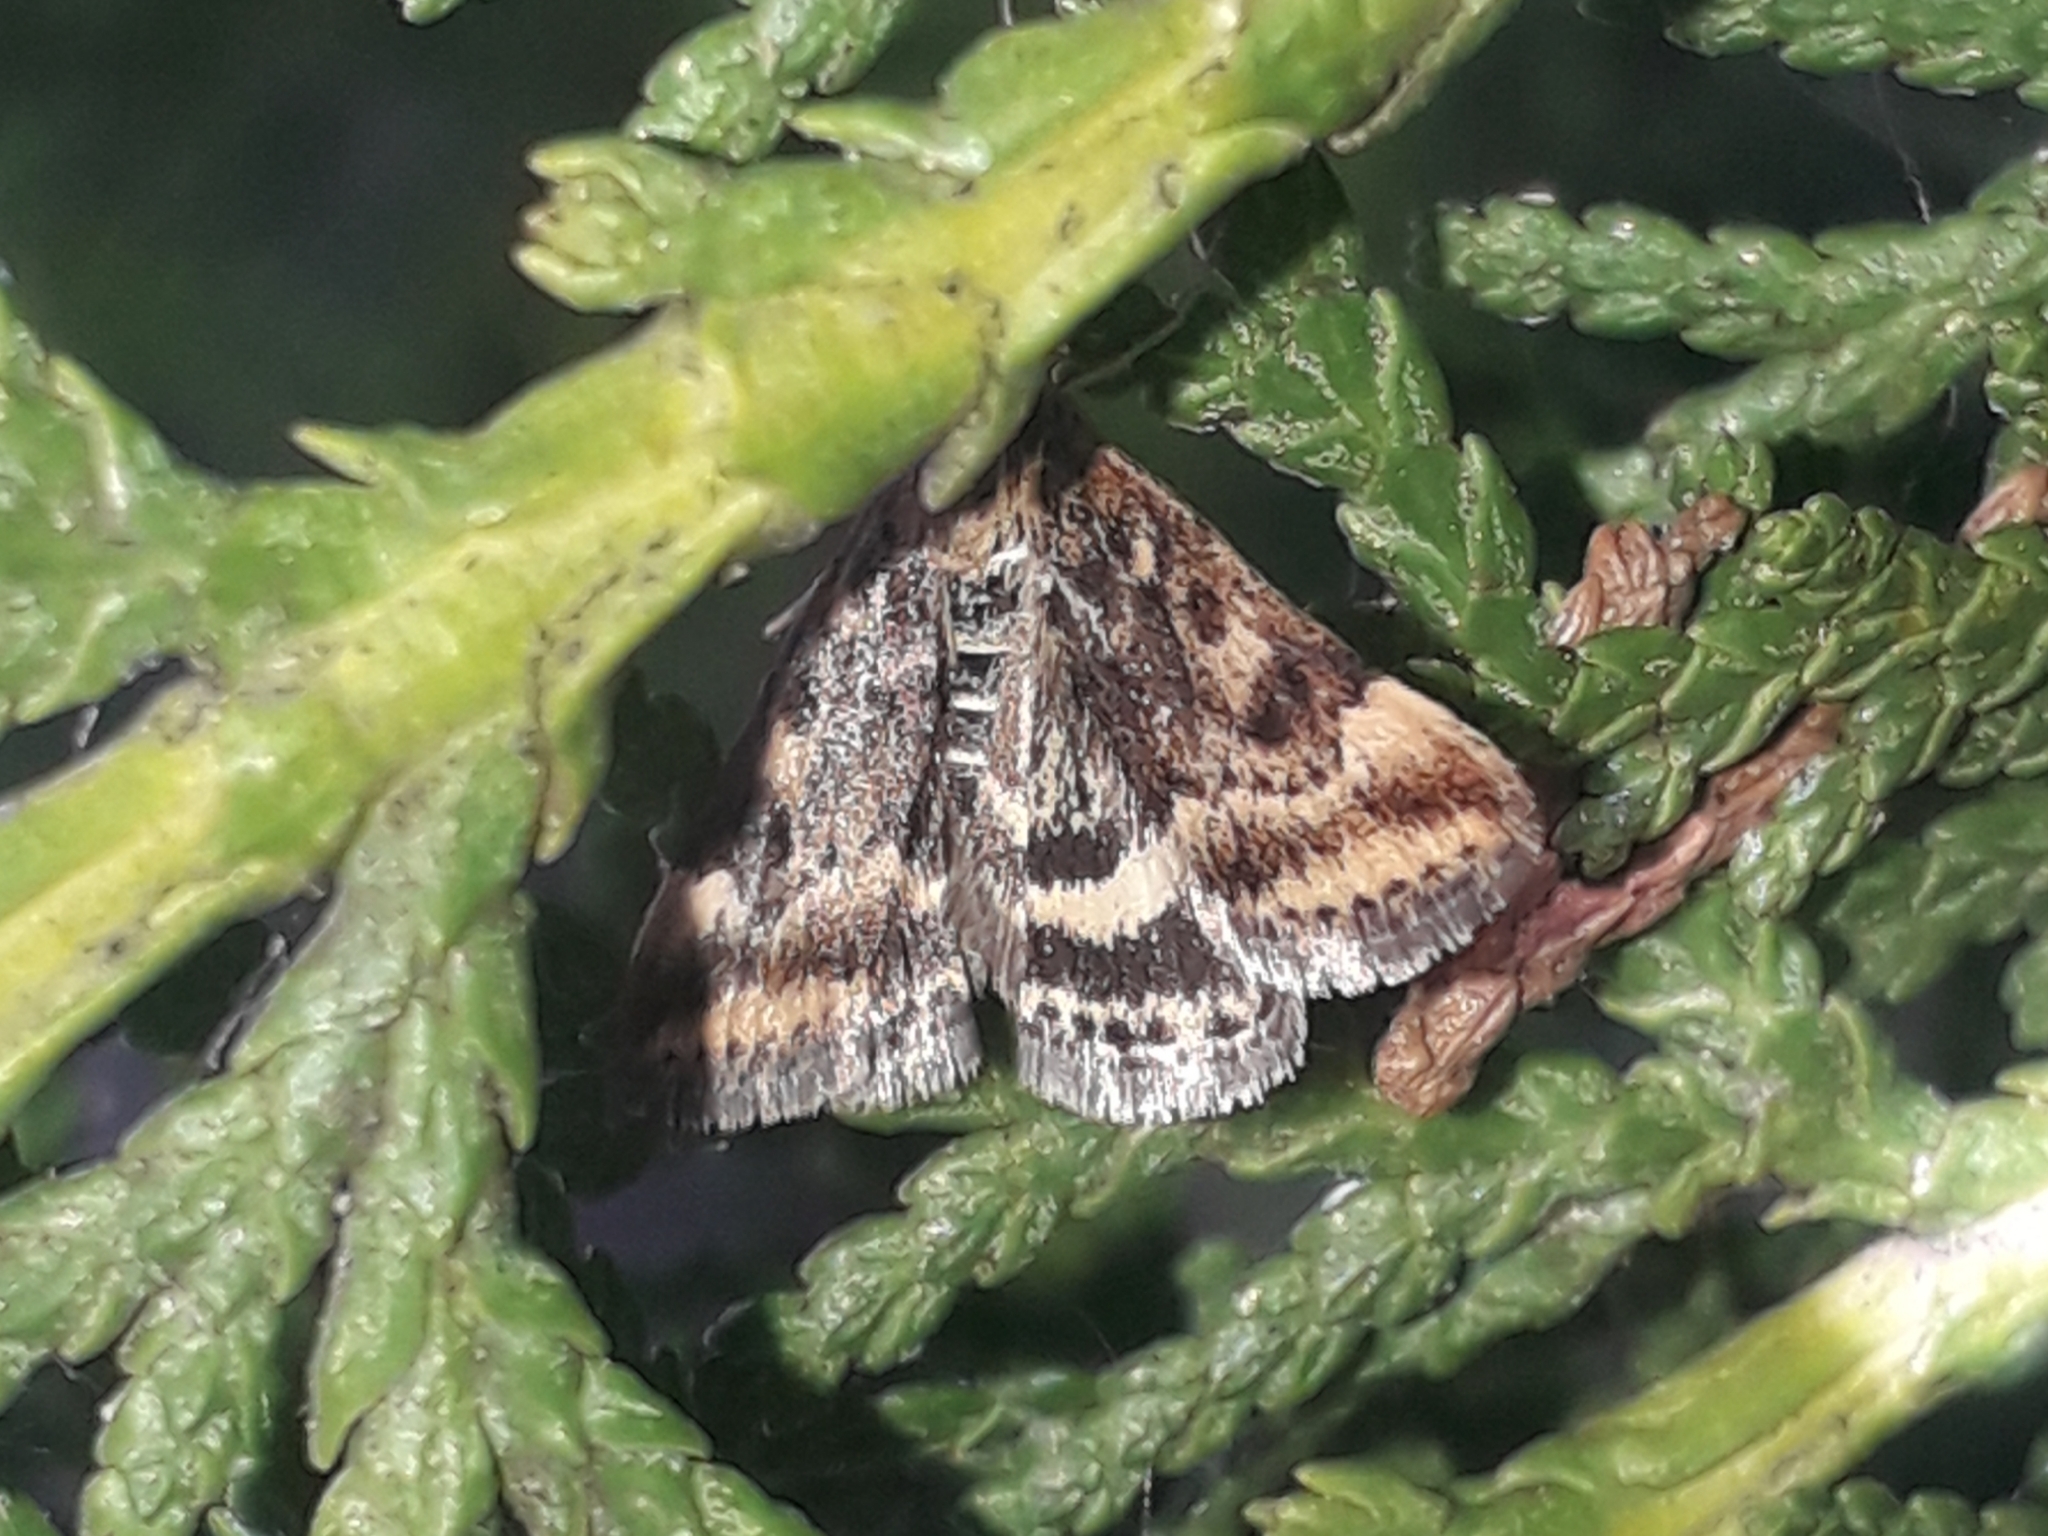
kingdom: Animalia
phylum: Arthropoda
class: Insecta
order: Lepidoptera
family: Crambidae
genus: Pyrausta
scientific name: Pyrausta despicata
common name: Straw-barred pearl
